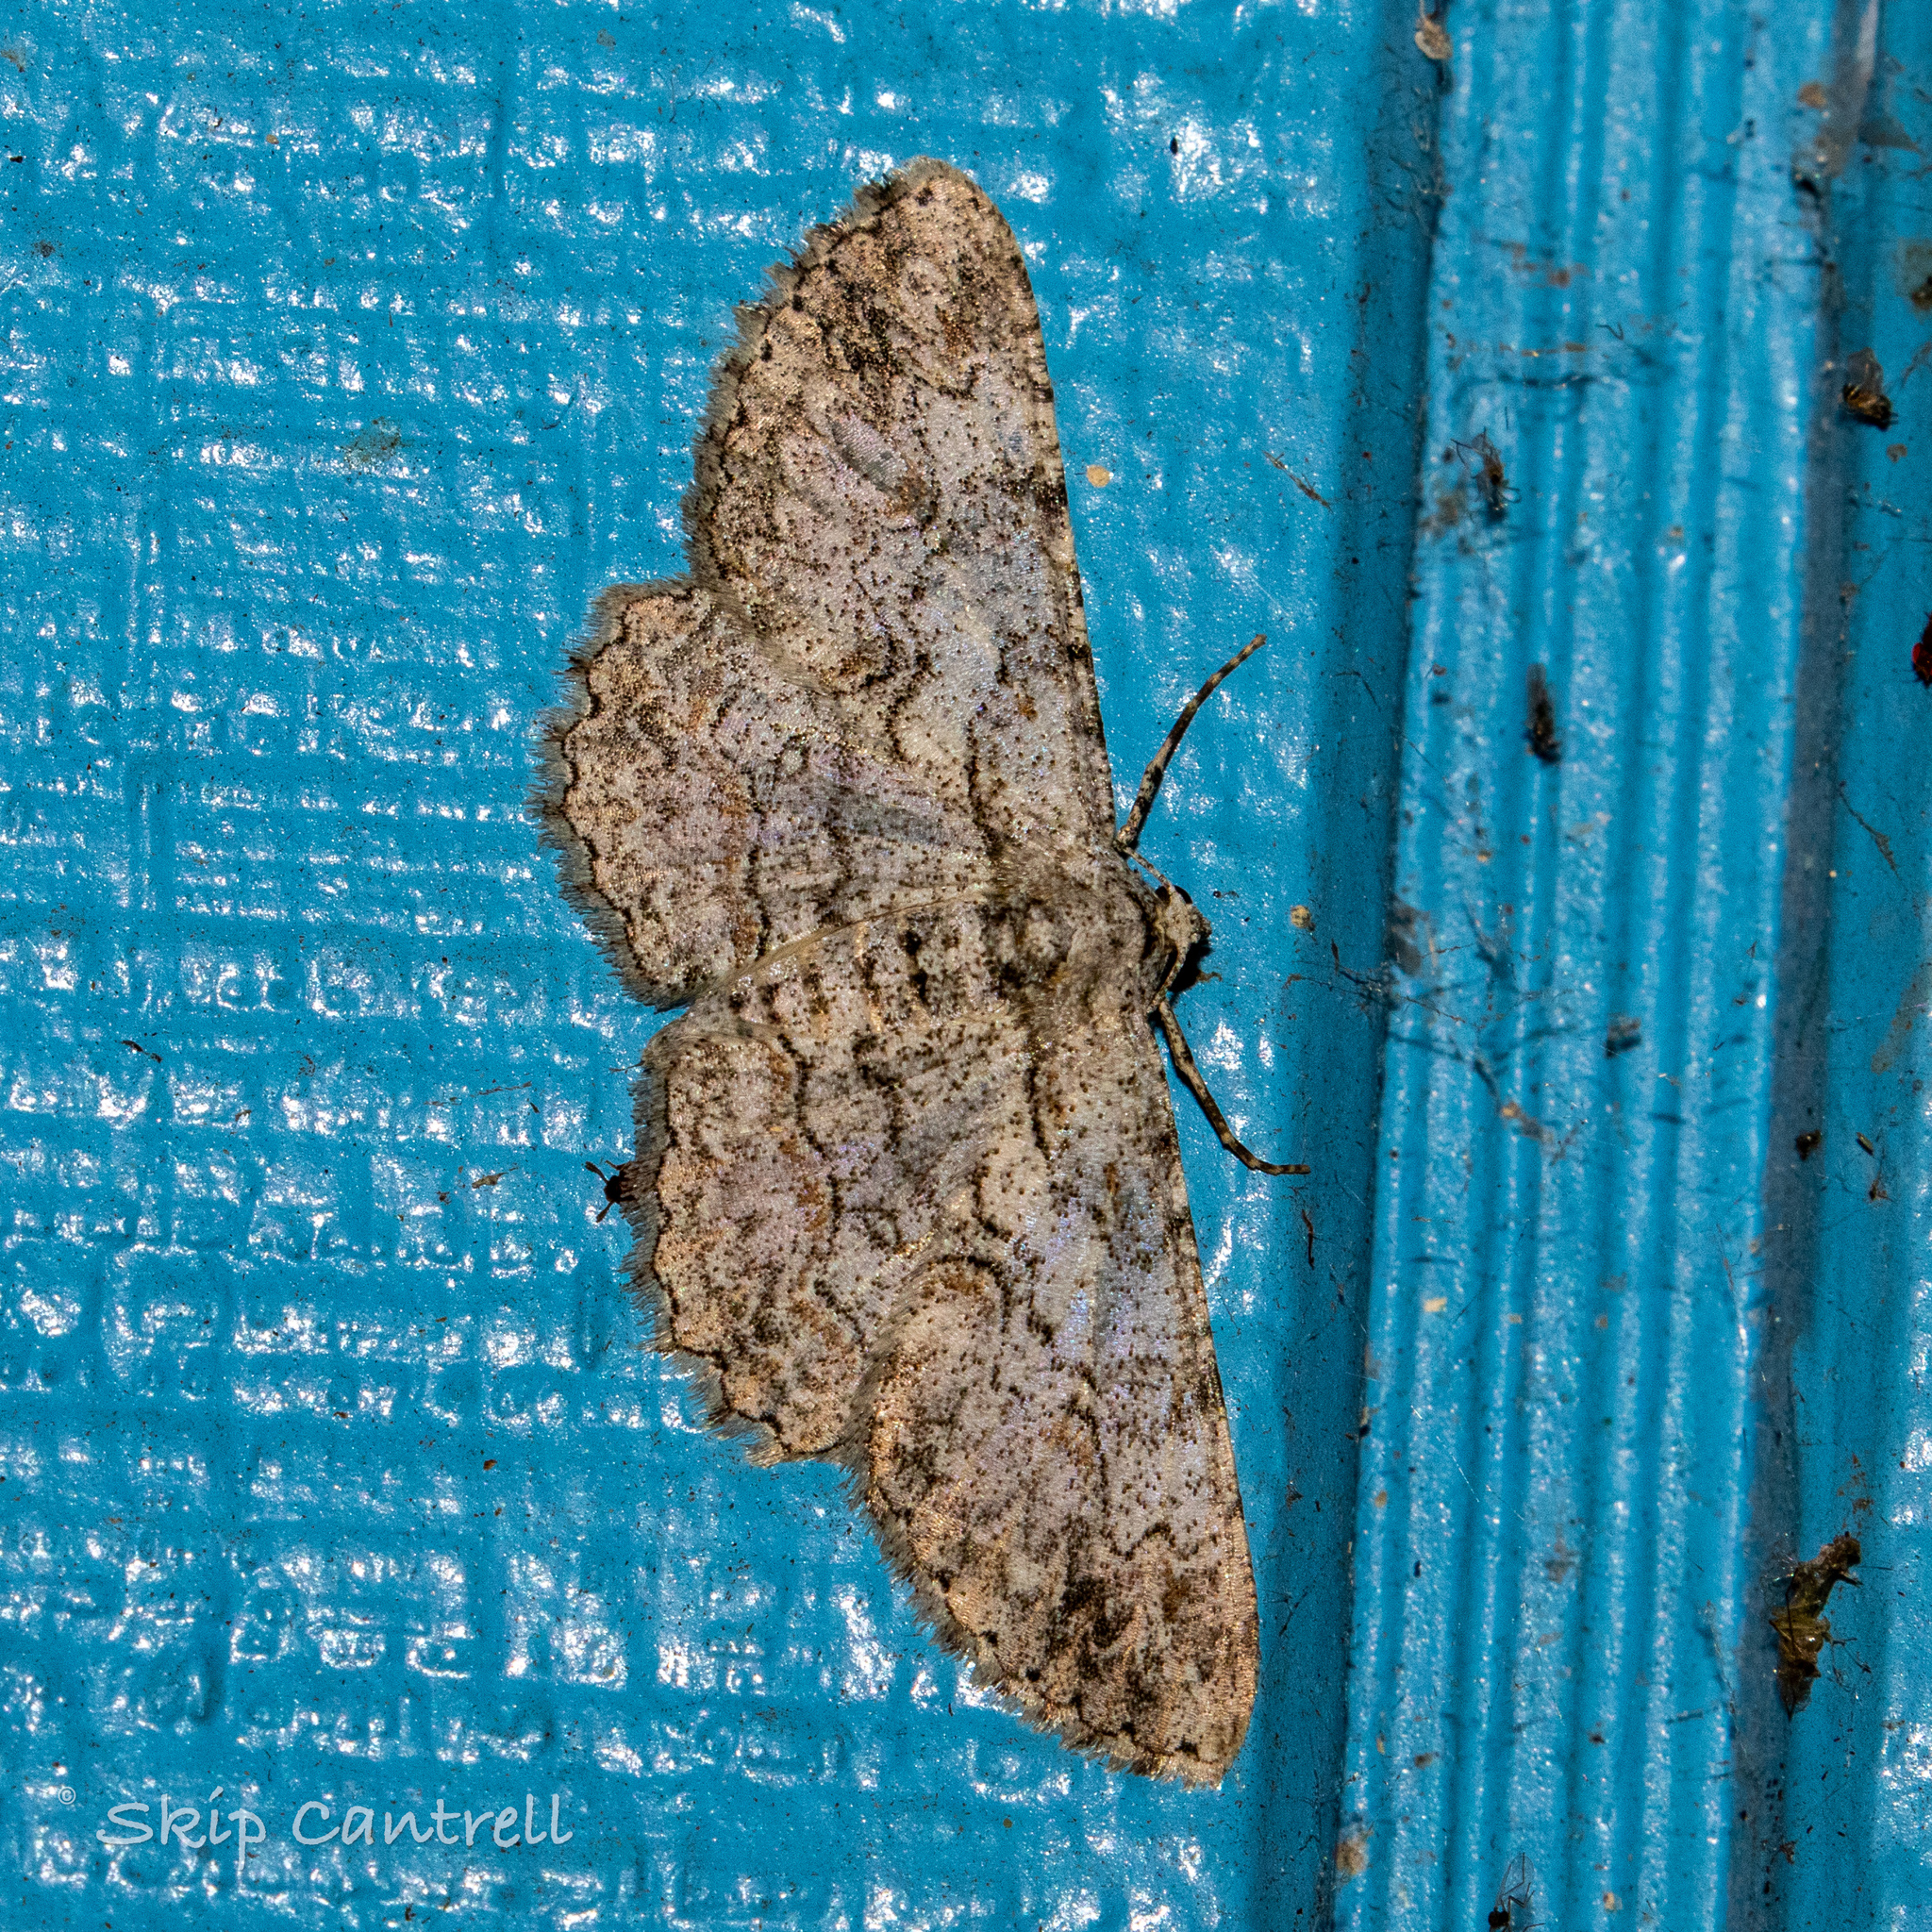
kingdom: Animalia
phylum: Arthropoda
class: Insecta
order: Lepidoptera
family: Geometridae
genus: Iridopsis
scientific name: Iridopsis defectaria
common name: Brown-shaded gray
